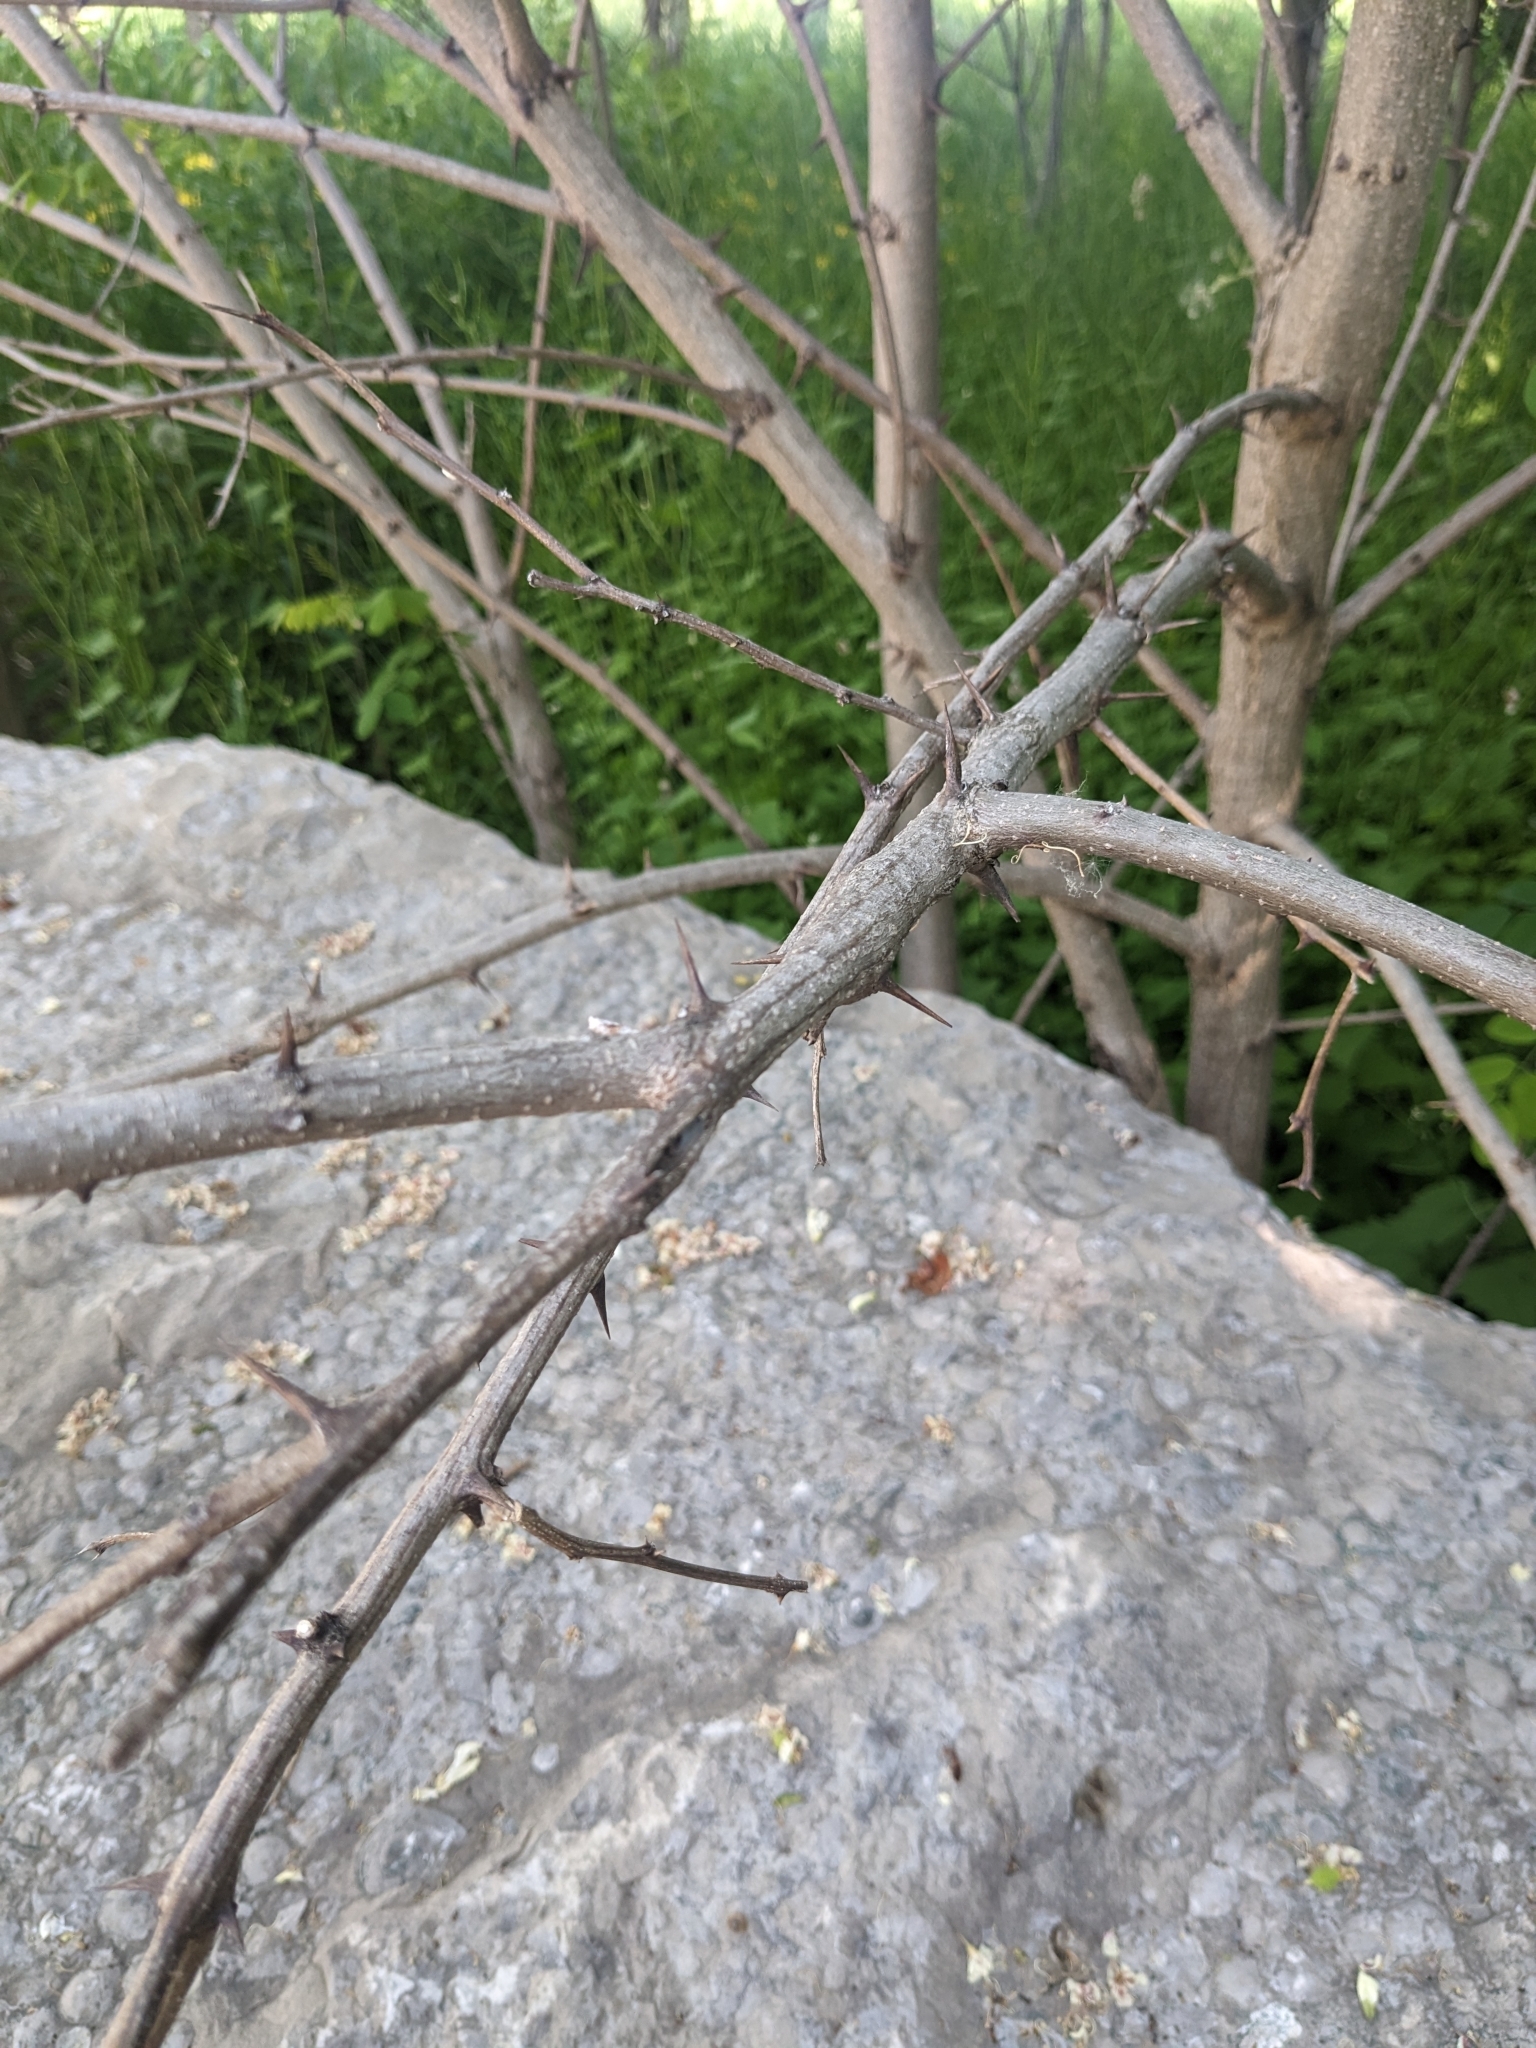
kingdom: Plantae
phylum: Tracheophyta
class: Magnoliopsida
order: Fabales
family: Fabaceae
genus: Robinia
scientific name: Robinia pseudoacacia
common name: Black locust
